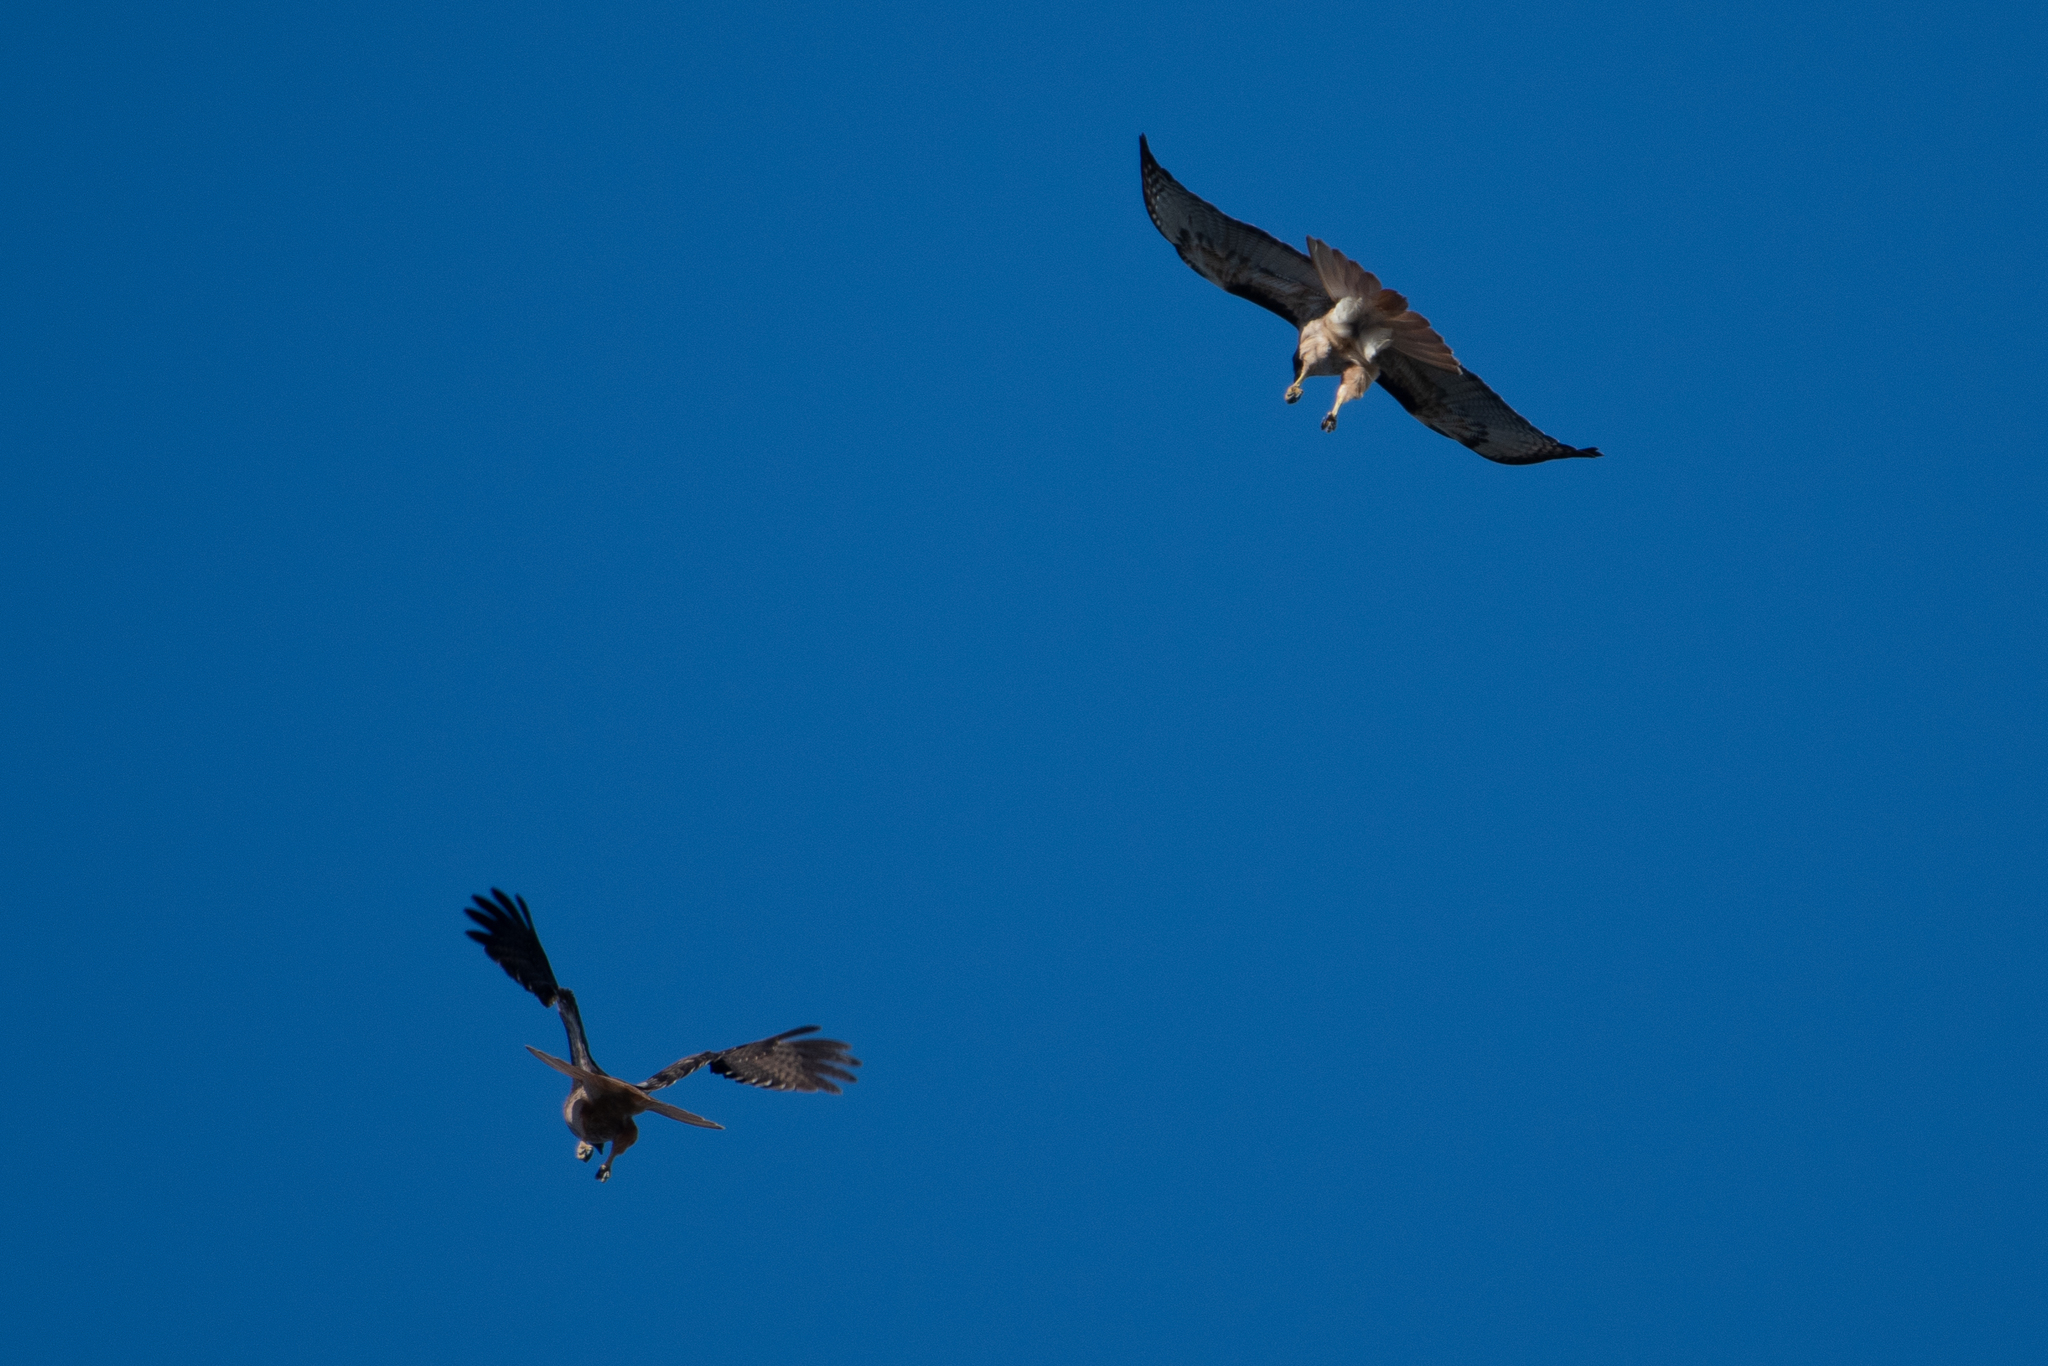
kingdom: Animalia
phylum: Chordata
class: Aves
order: Accipitriformes
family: Accipitridae
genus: Buteo
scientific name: Buteo jamaicensis
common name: Red-tailed hawk
